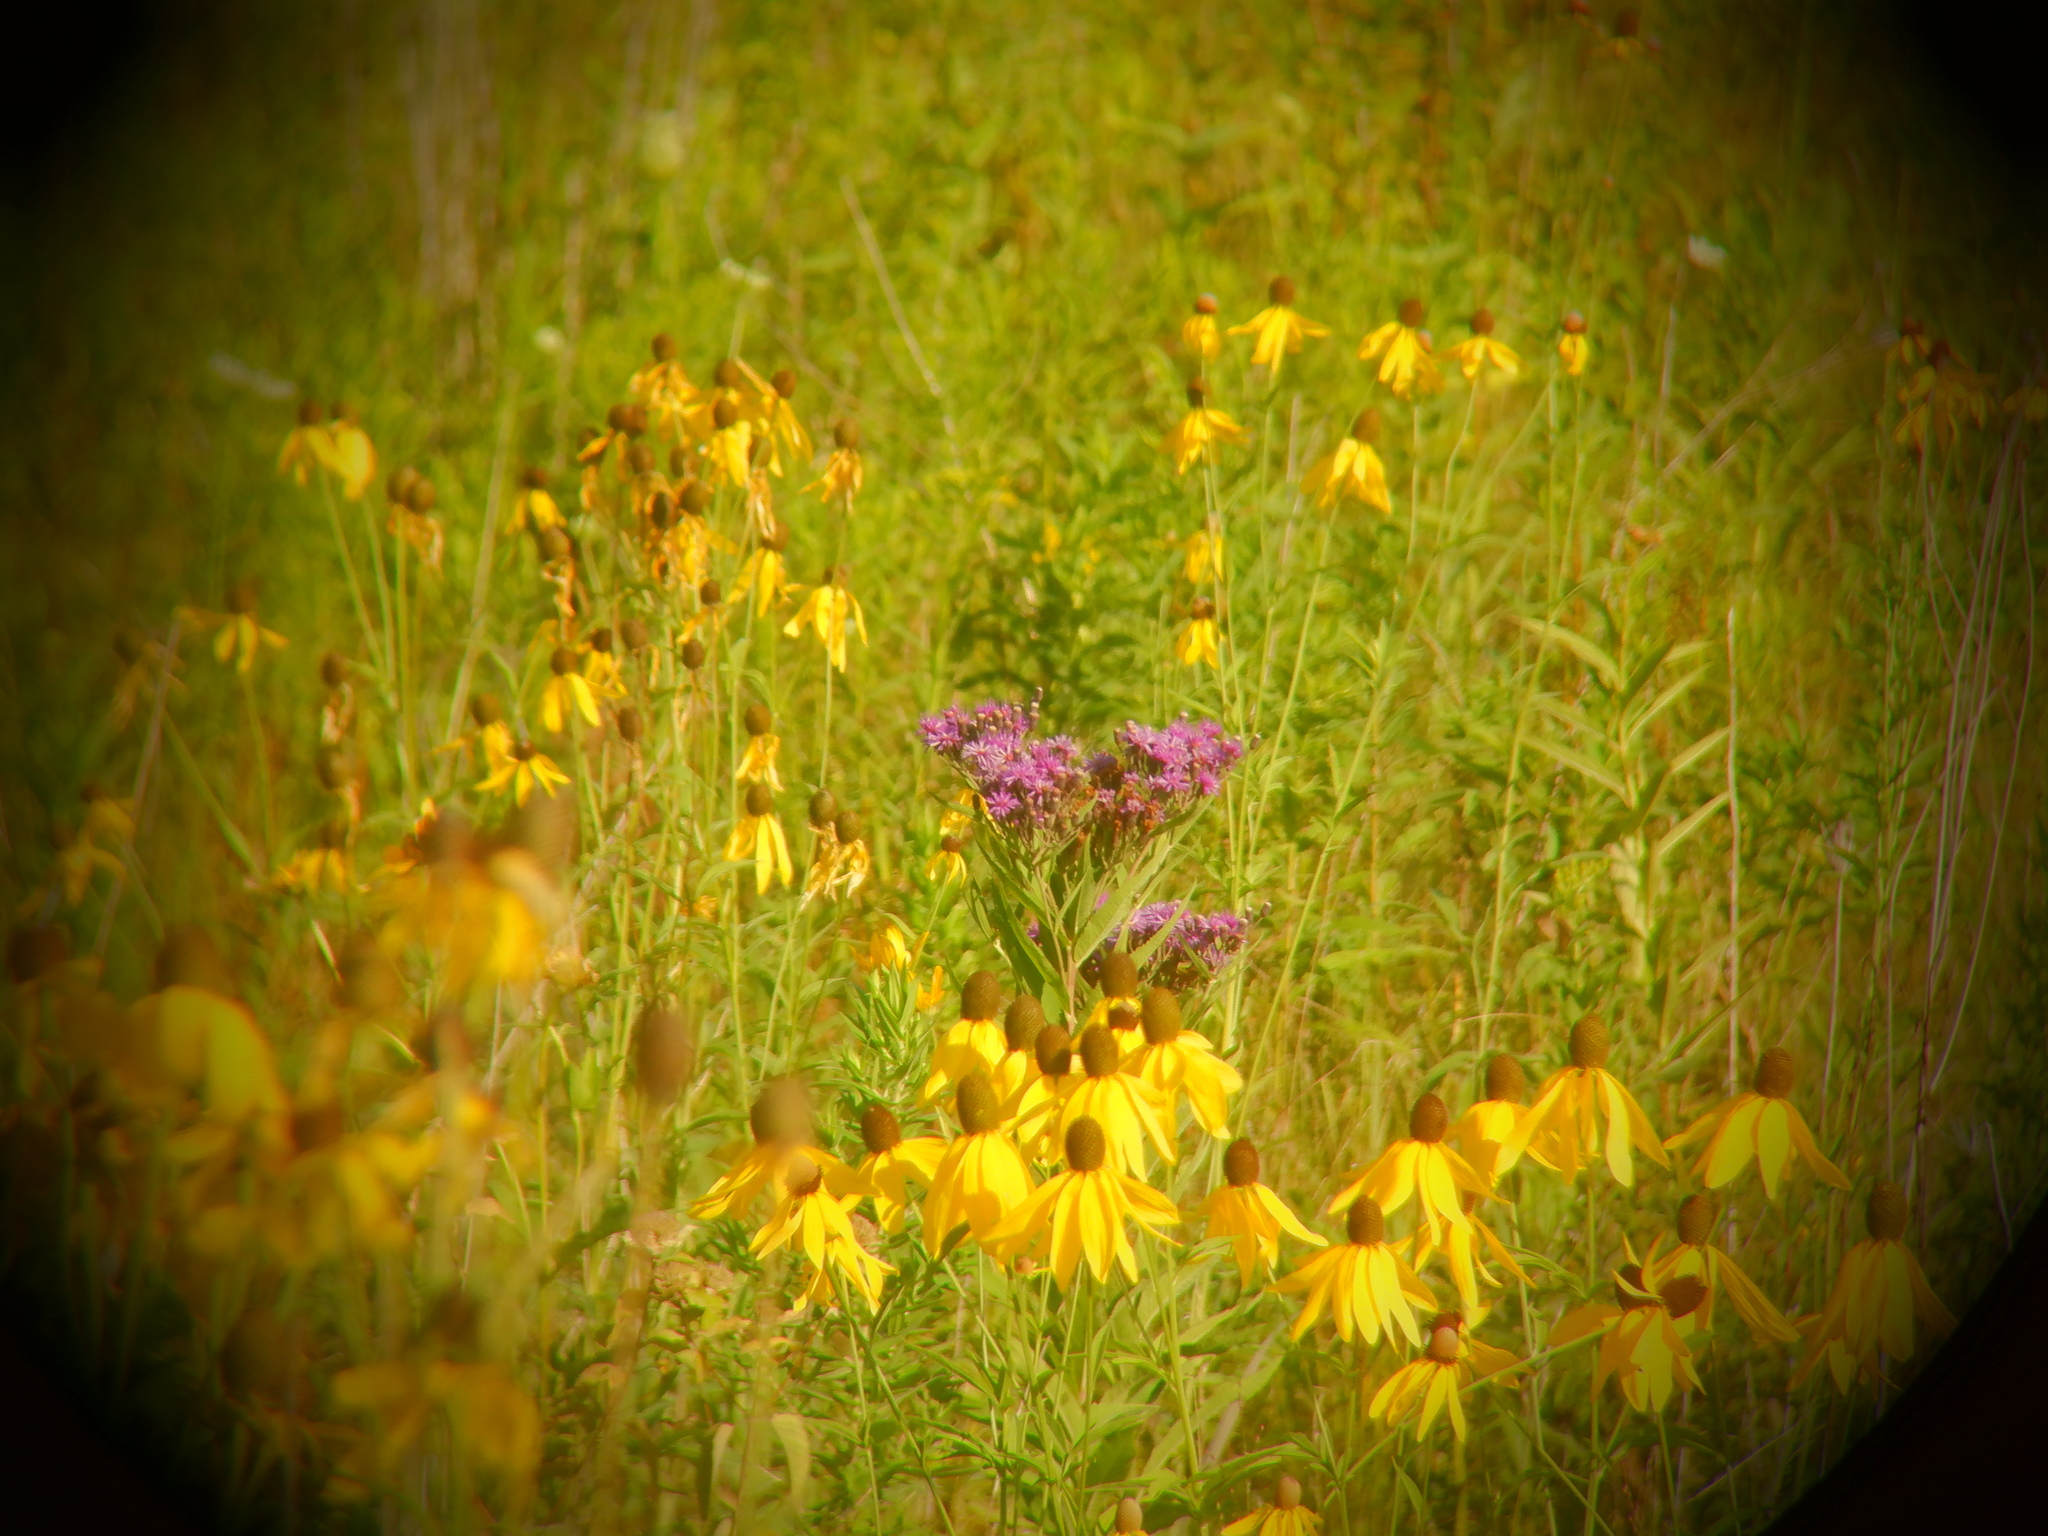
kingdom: Plantae
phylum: Tracheophyta
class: Magnoliopsida
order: Asterales
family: Asteraceae
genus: Vernonia
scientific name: Vernonia fasciculata
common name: Fascicled ironweed
